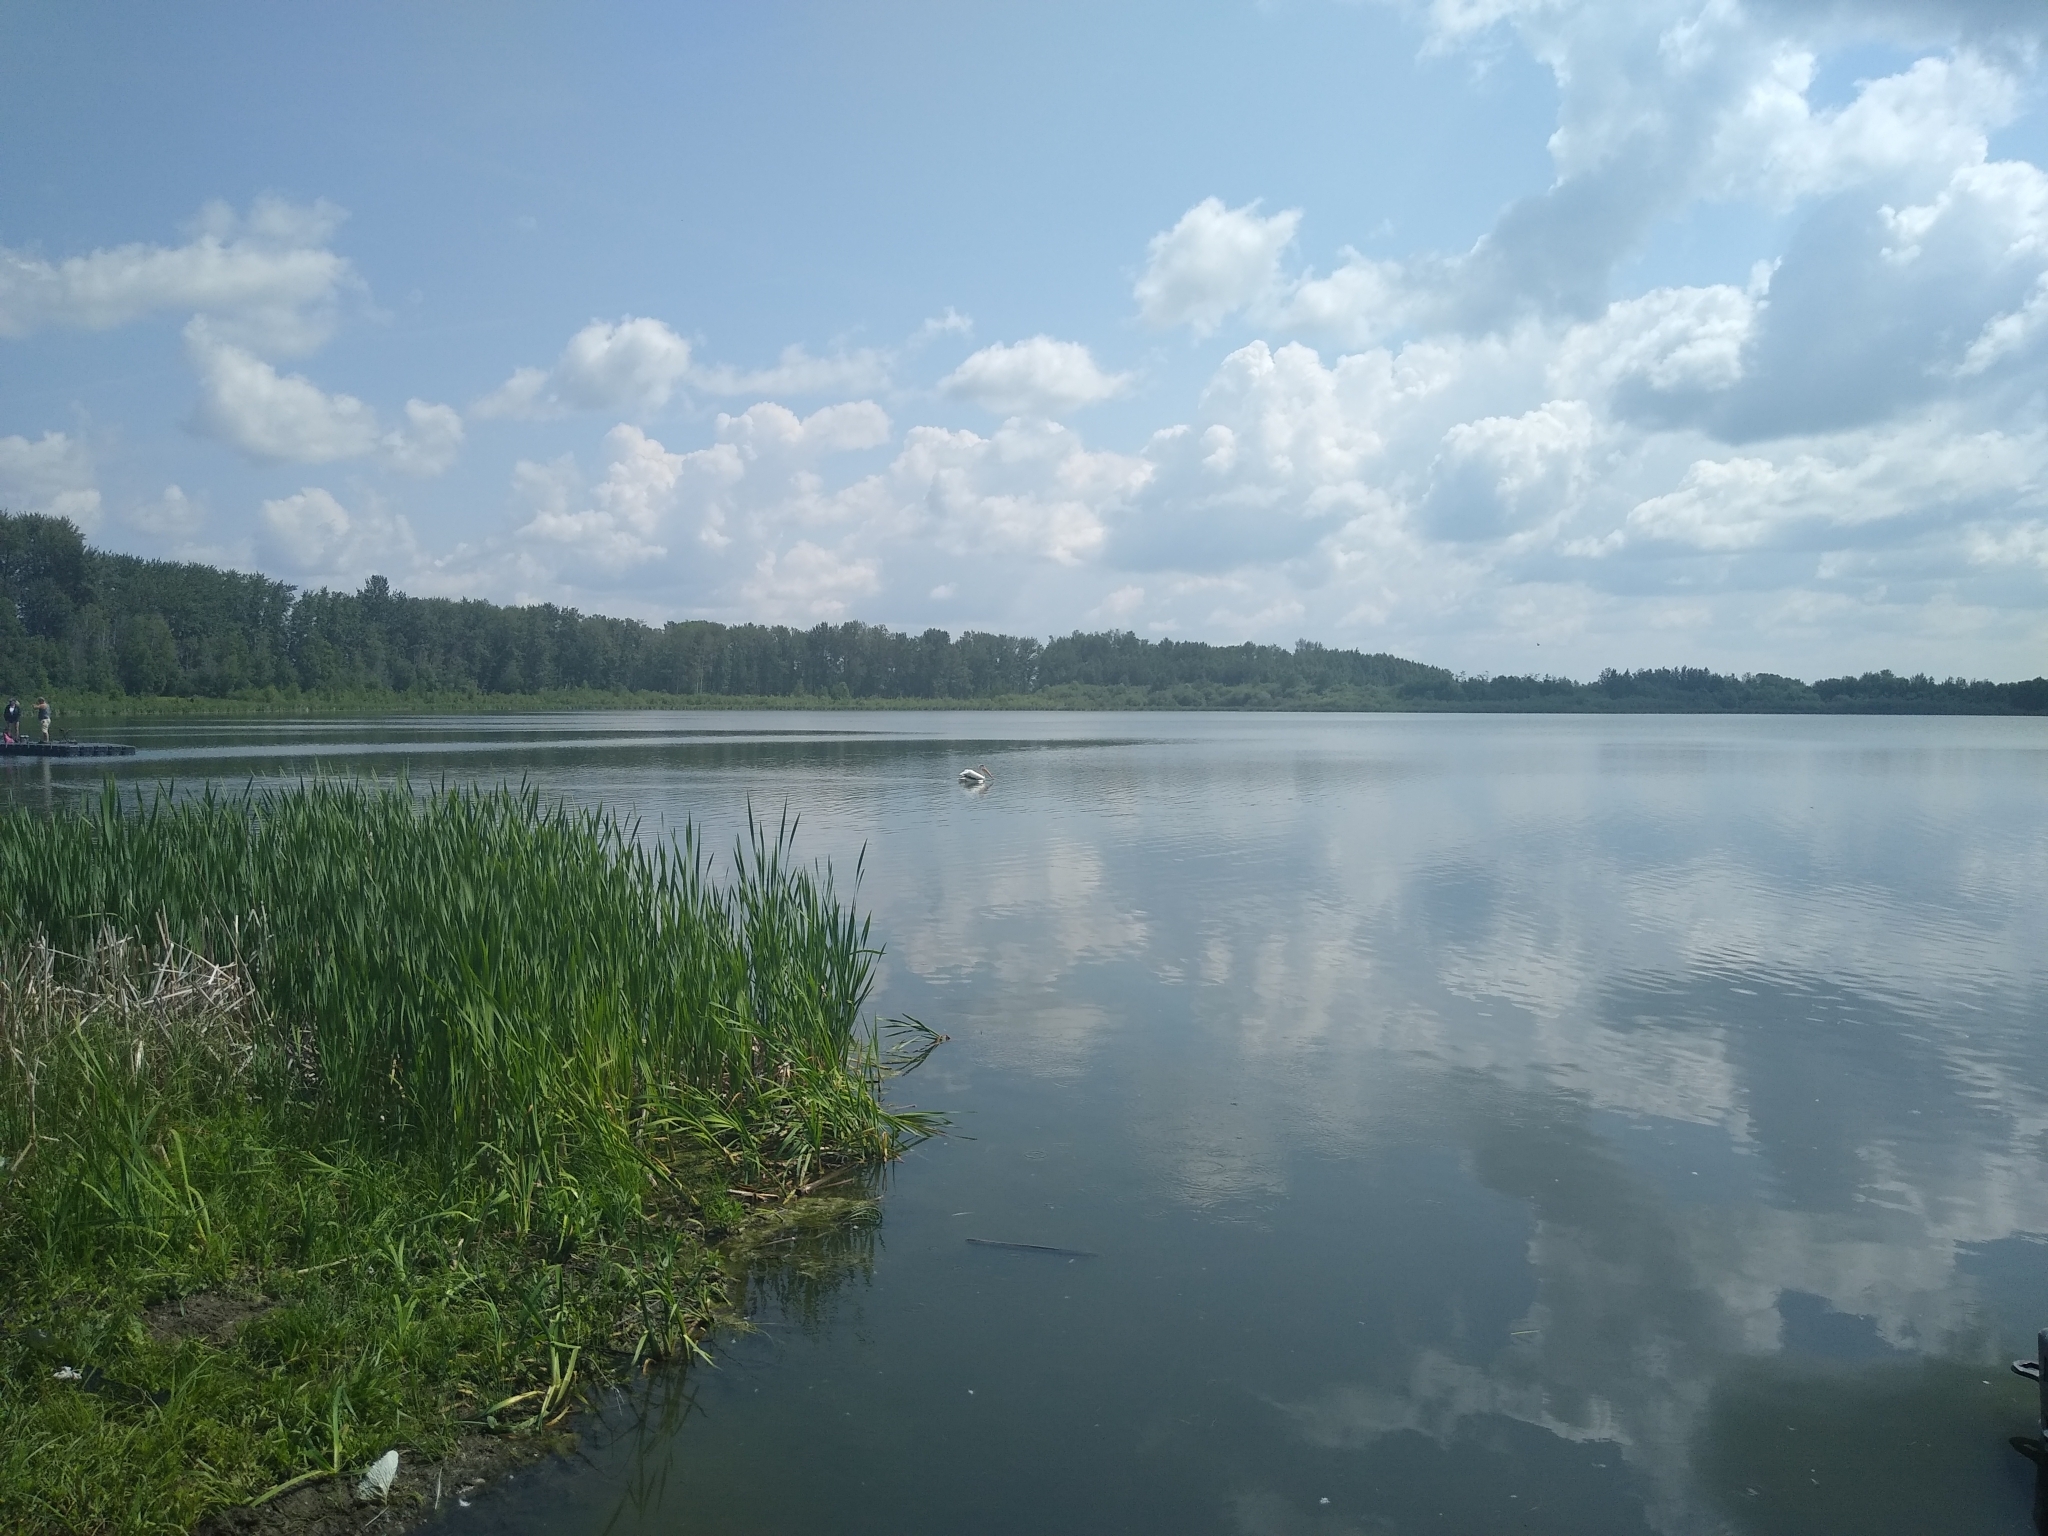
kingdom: Animalia
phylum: Chordata
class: Aves
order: Pelecaniformes
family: Pelecanidae
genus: Pelecanus
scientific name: Pelecanus erythrorhynchos
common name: American white pelican
